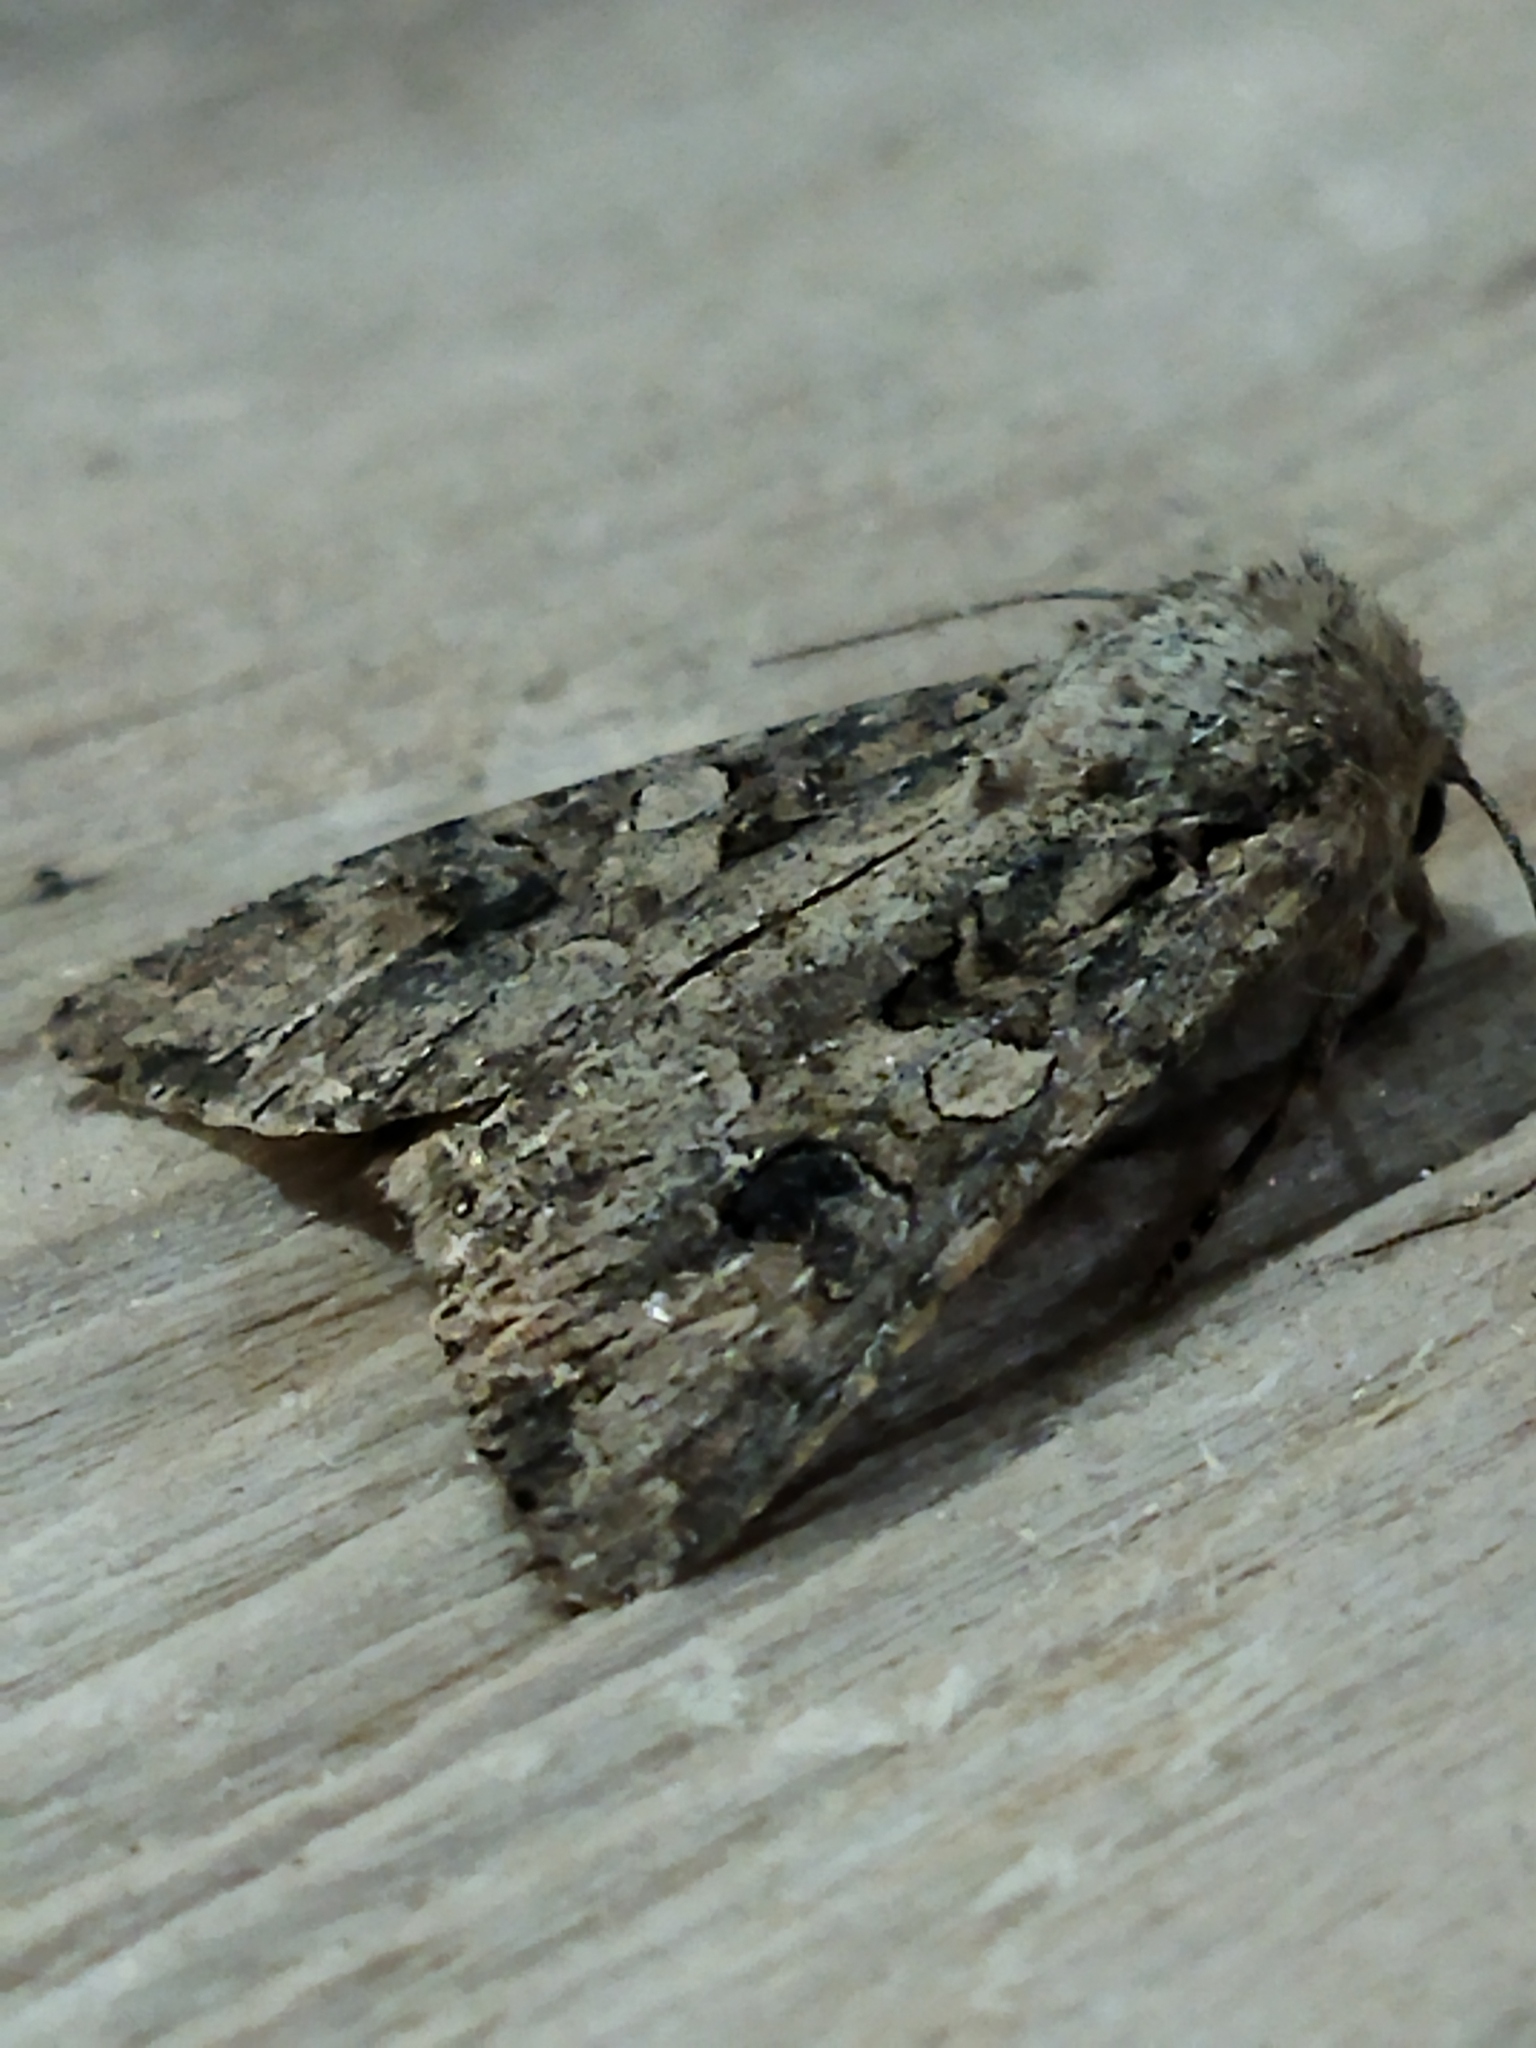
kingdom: Animalia
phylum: Arthropoda
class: Insecta
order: Lepidoptera
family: Noctuidae
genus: Anarta
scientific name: Anarta trifolii
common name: Clover cutworm moth
